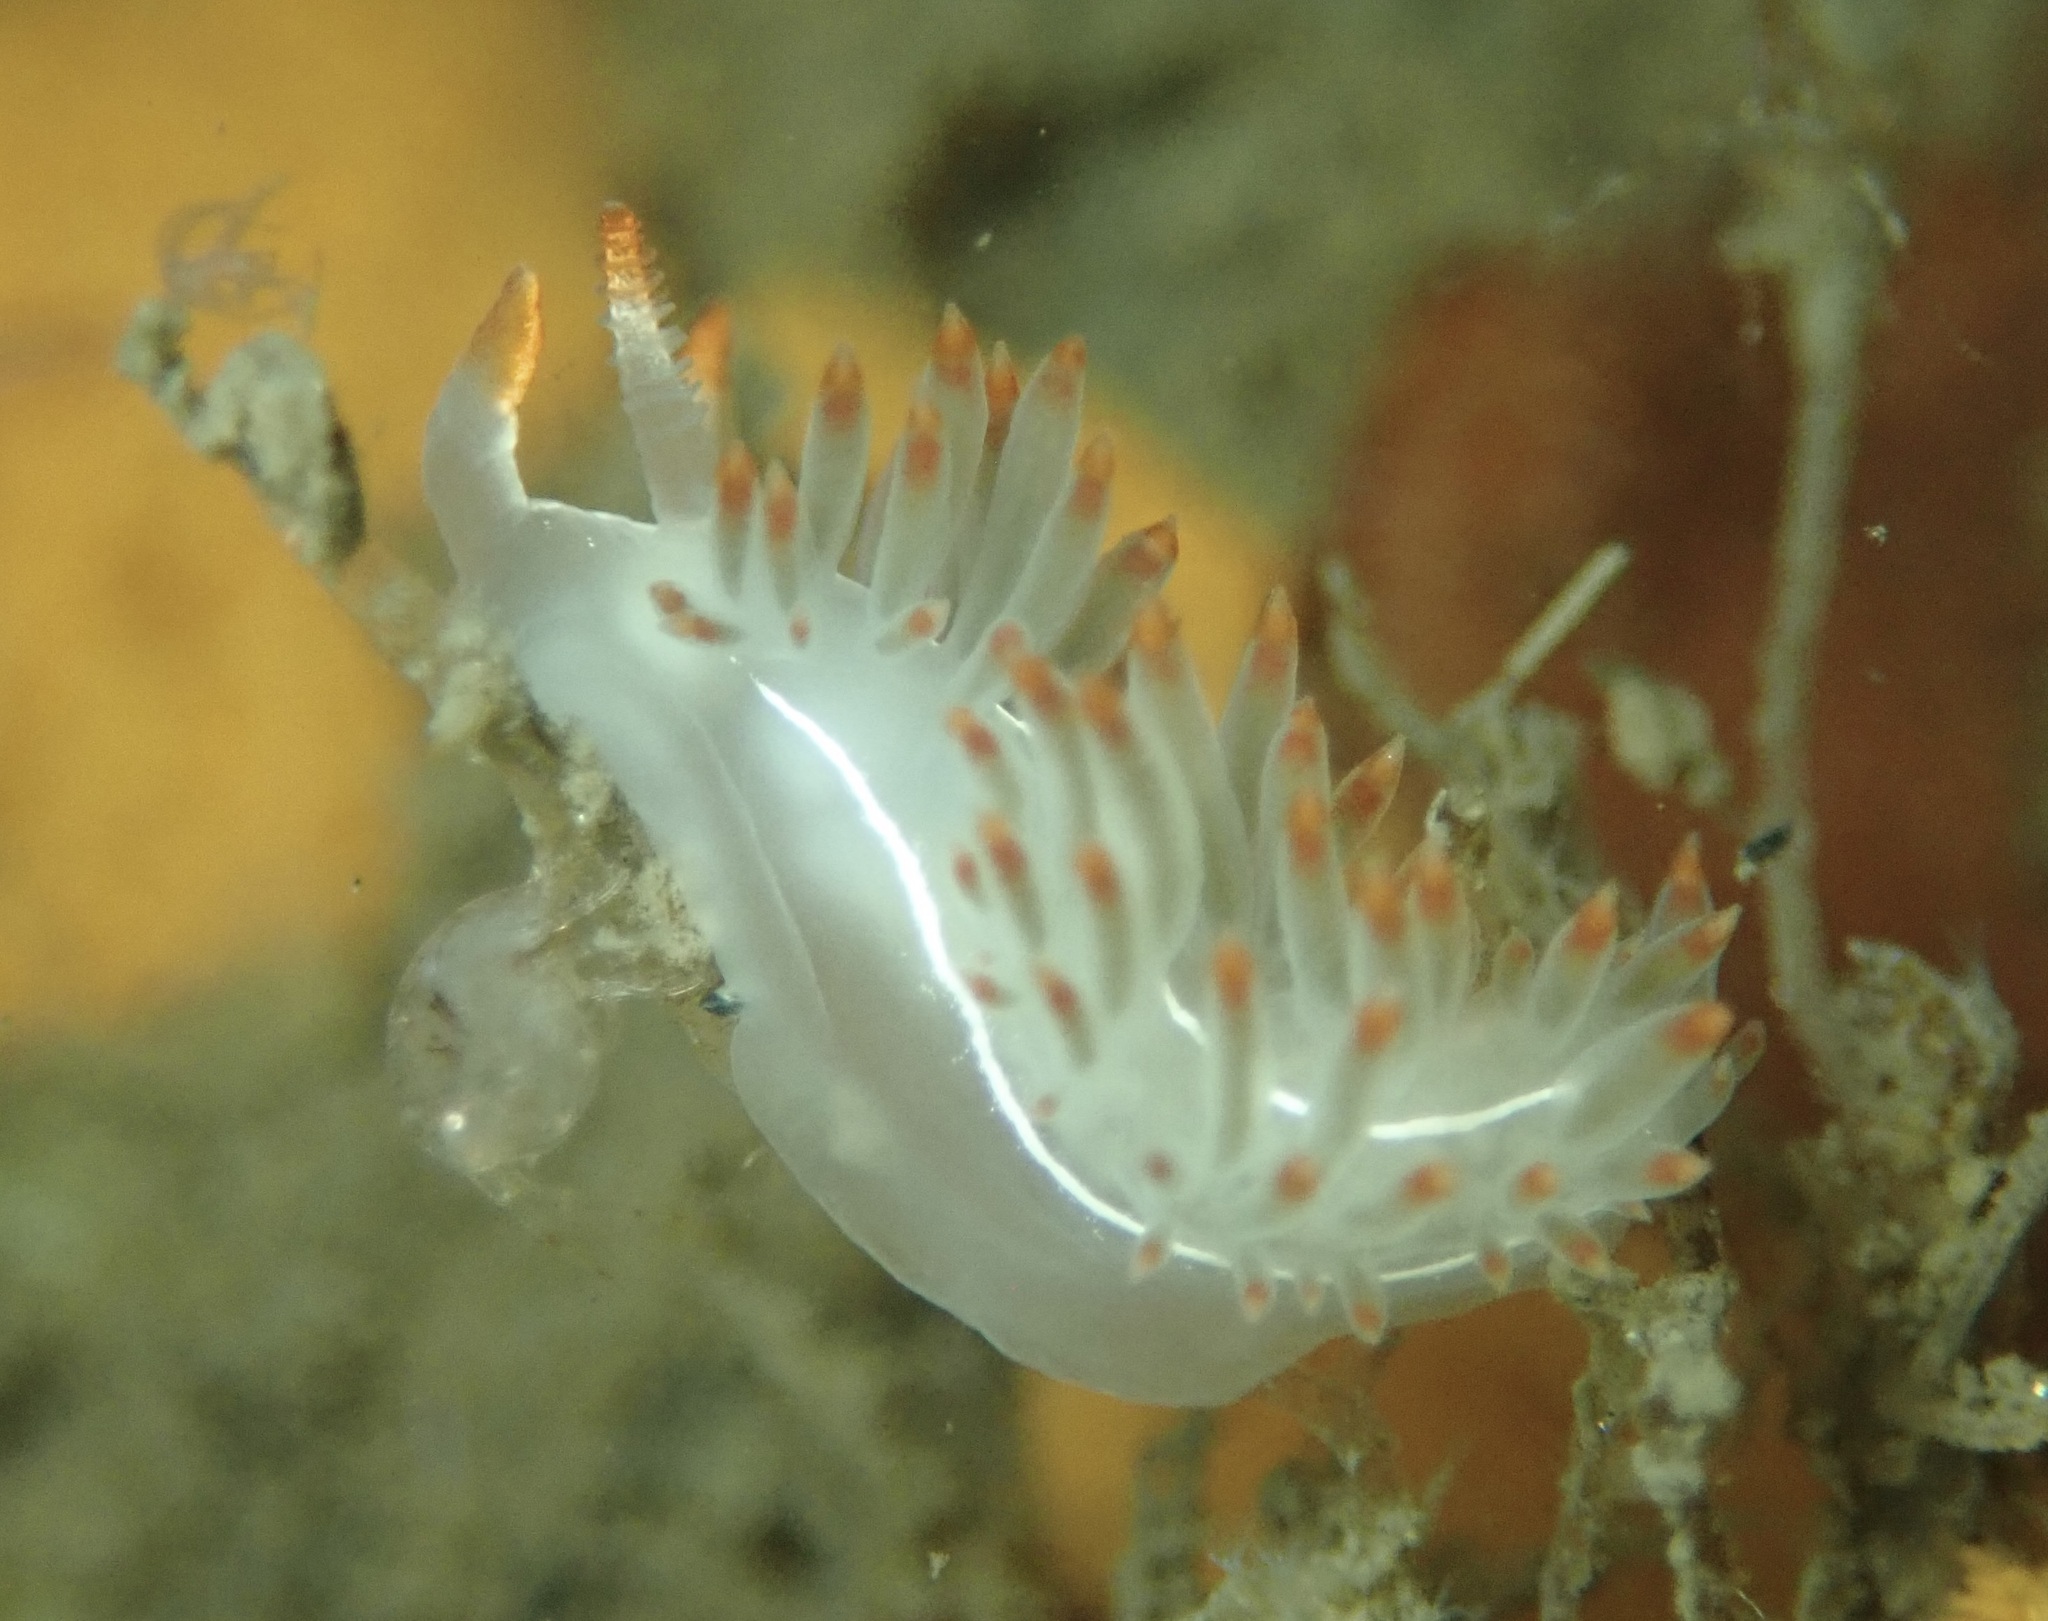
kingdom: Animalia
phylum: Mollusca
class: Gastropoda
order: Nudibranchia
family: Coryphellidae
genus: Coryphella
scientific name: Coryphella trilineata
